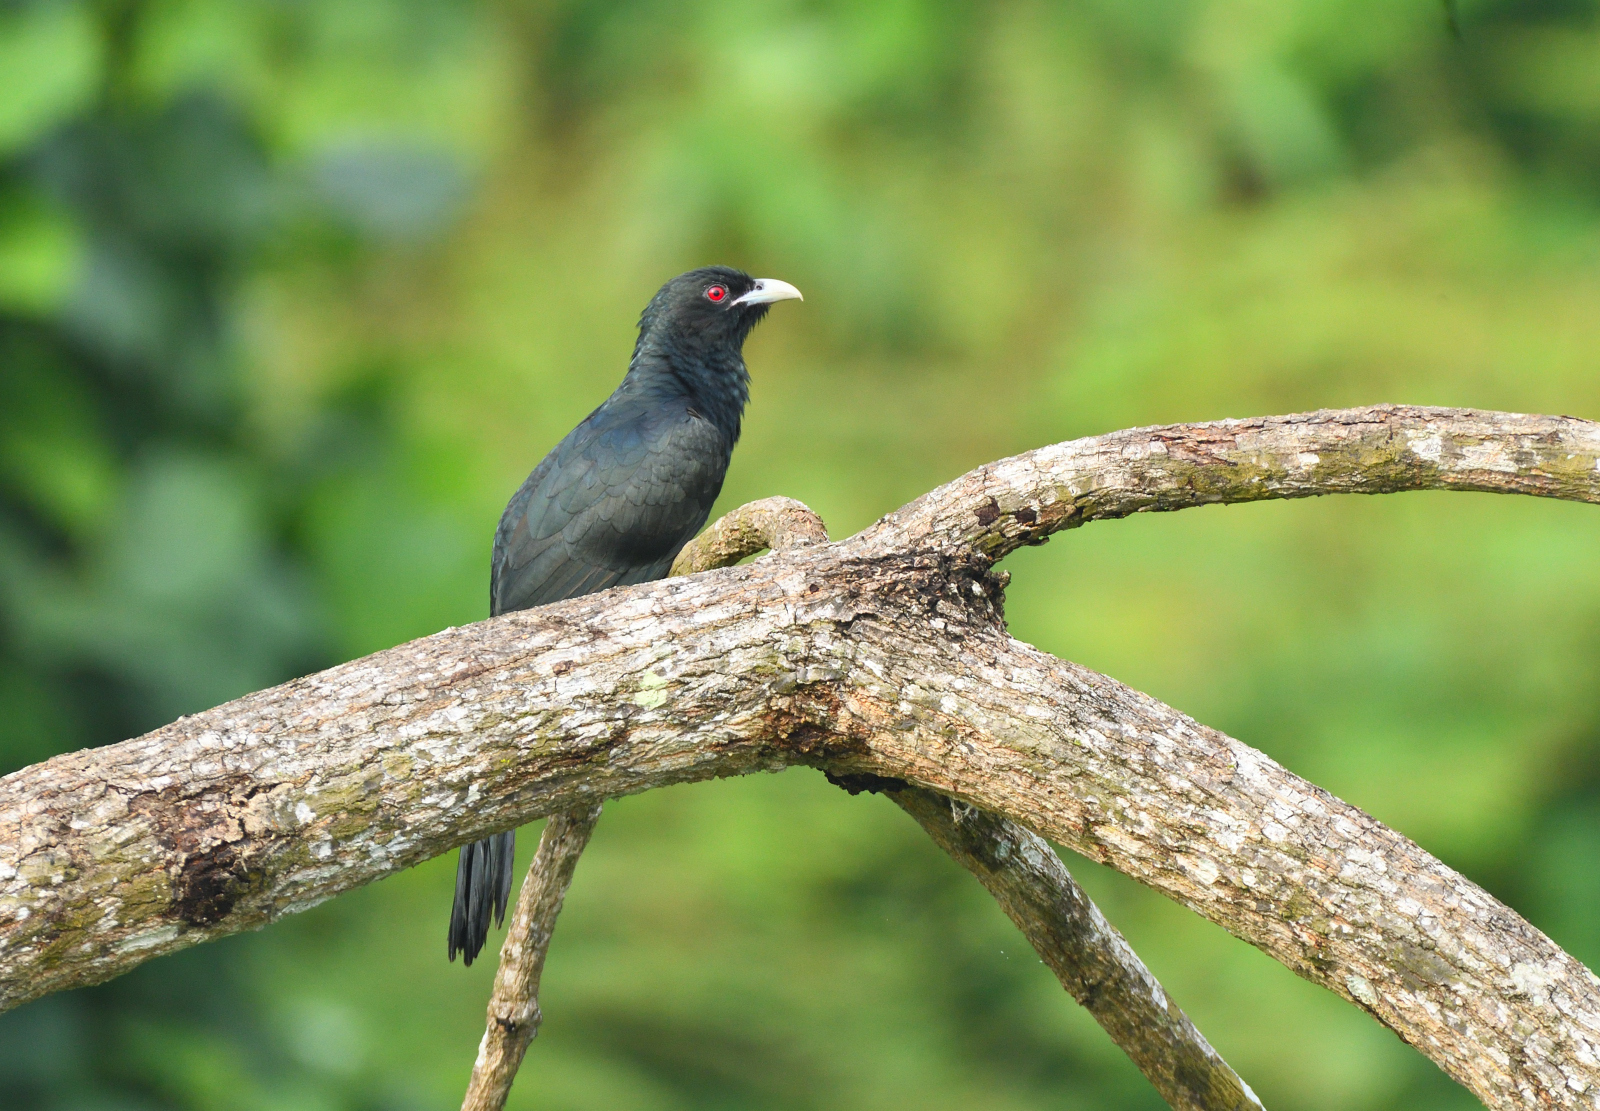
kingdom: Animalia
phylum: Chordata
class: Aves
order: Cuculiformes
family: Cuculidae
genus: Eudynamys
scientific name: Eudynamys scolopaceus
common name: Asian koel
